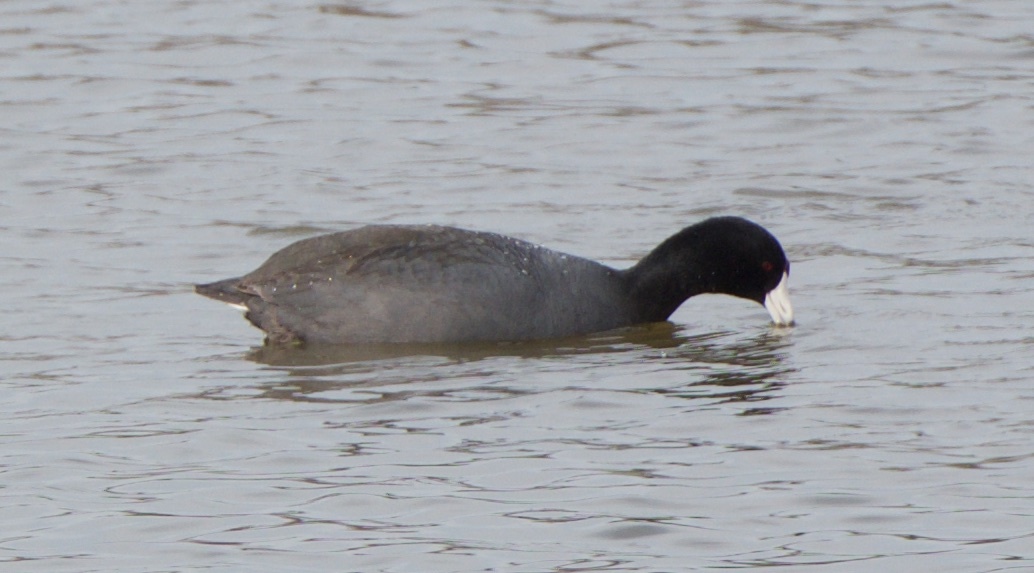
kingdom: Animalia
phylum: Chordata
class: Aves
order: Gruiformes
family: Rallidae
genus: Fulica
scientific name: Fulica americana
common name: American coot
